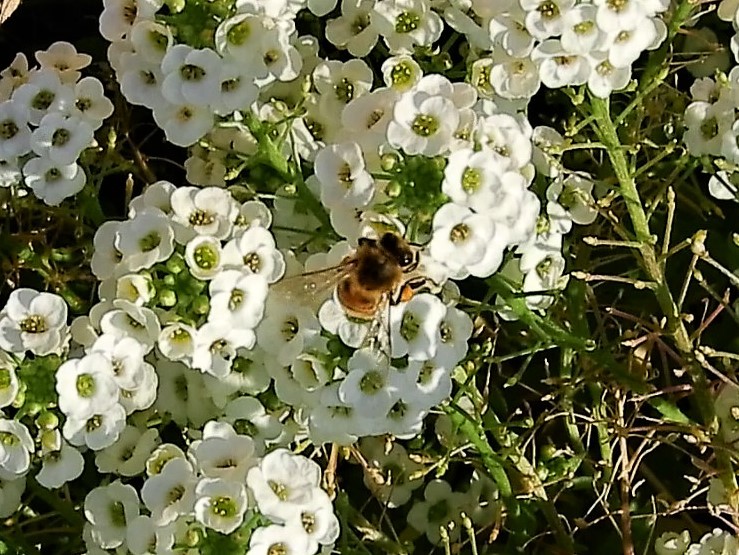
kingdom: Animalia
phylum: Arthropoda
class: Insecta
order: Hymenoptera
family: Apidae
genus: Apis
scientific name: Apis mellifera
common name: Honey bee
